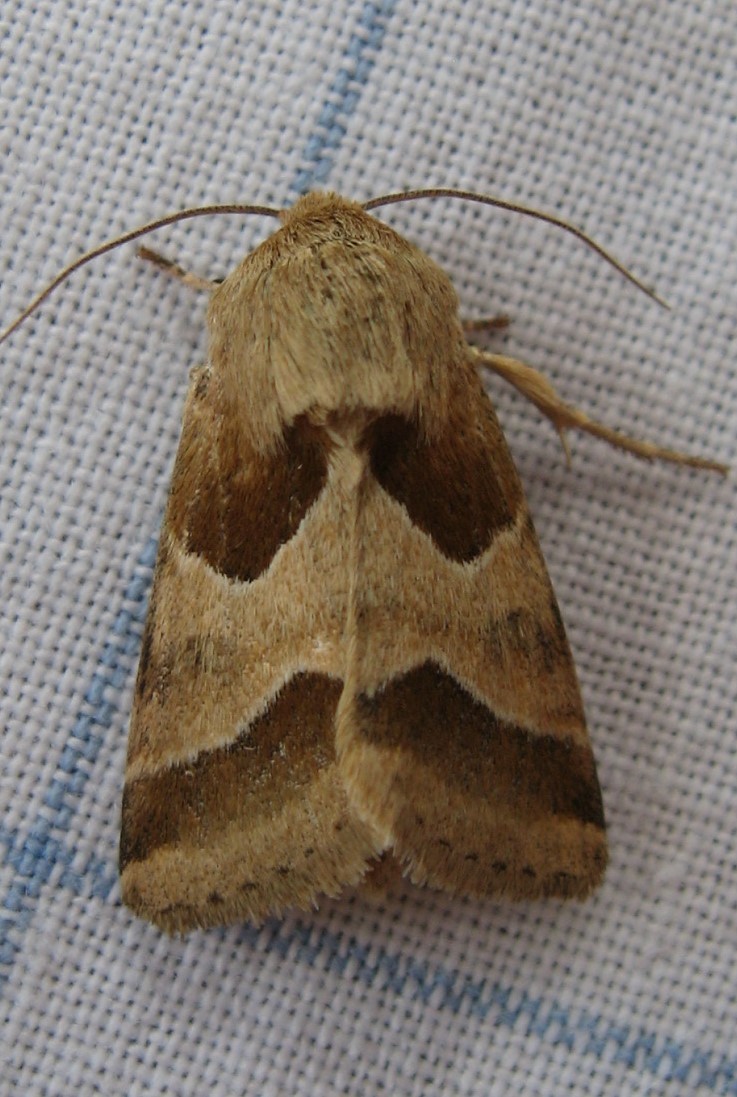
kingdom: Animalia
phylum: Arthropoda
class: Insecta
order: Lepidoptera
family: Noctuidae
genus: Schinia
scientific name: Schinia jaguarina
